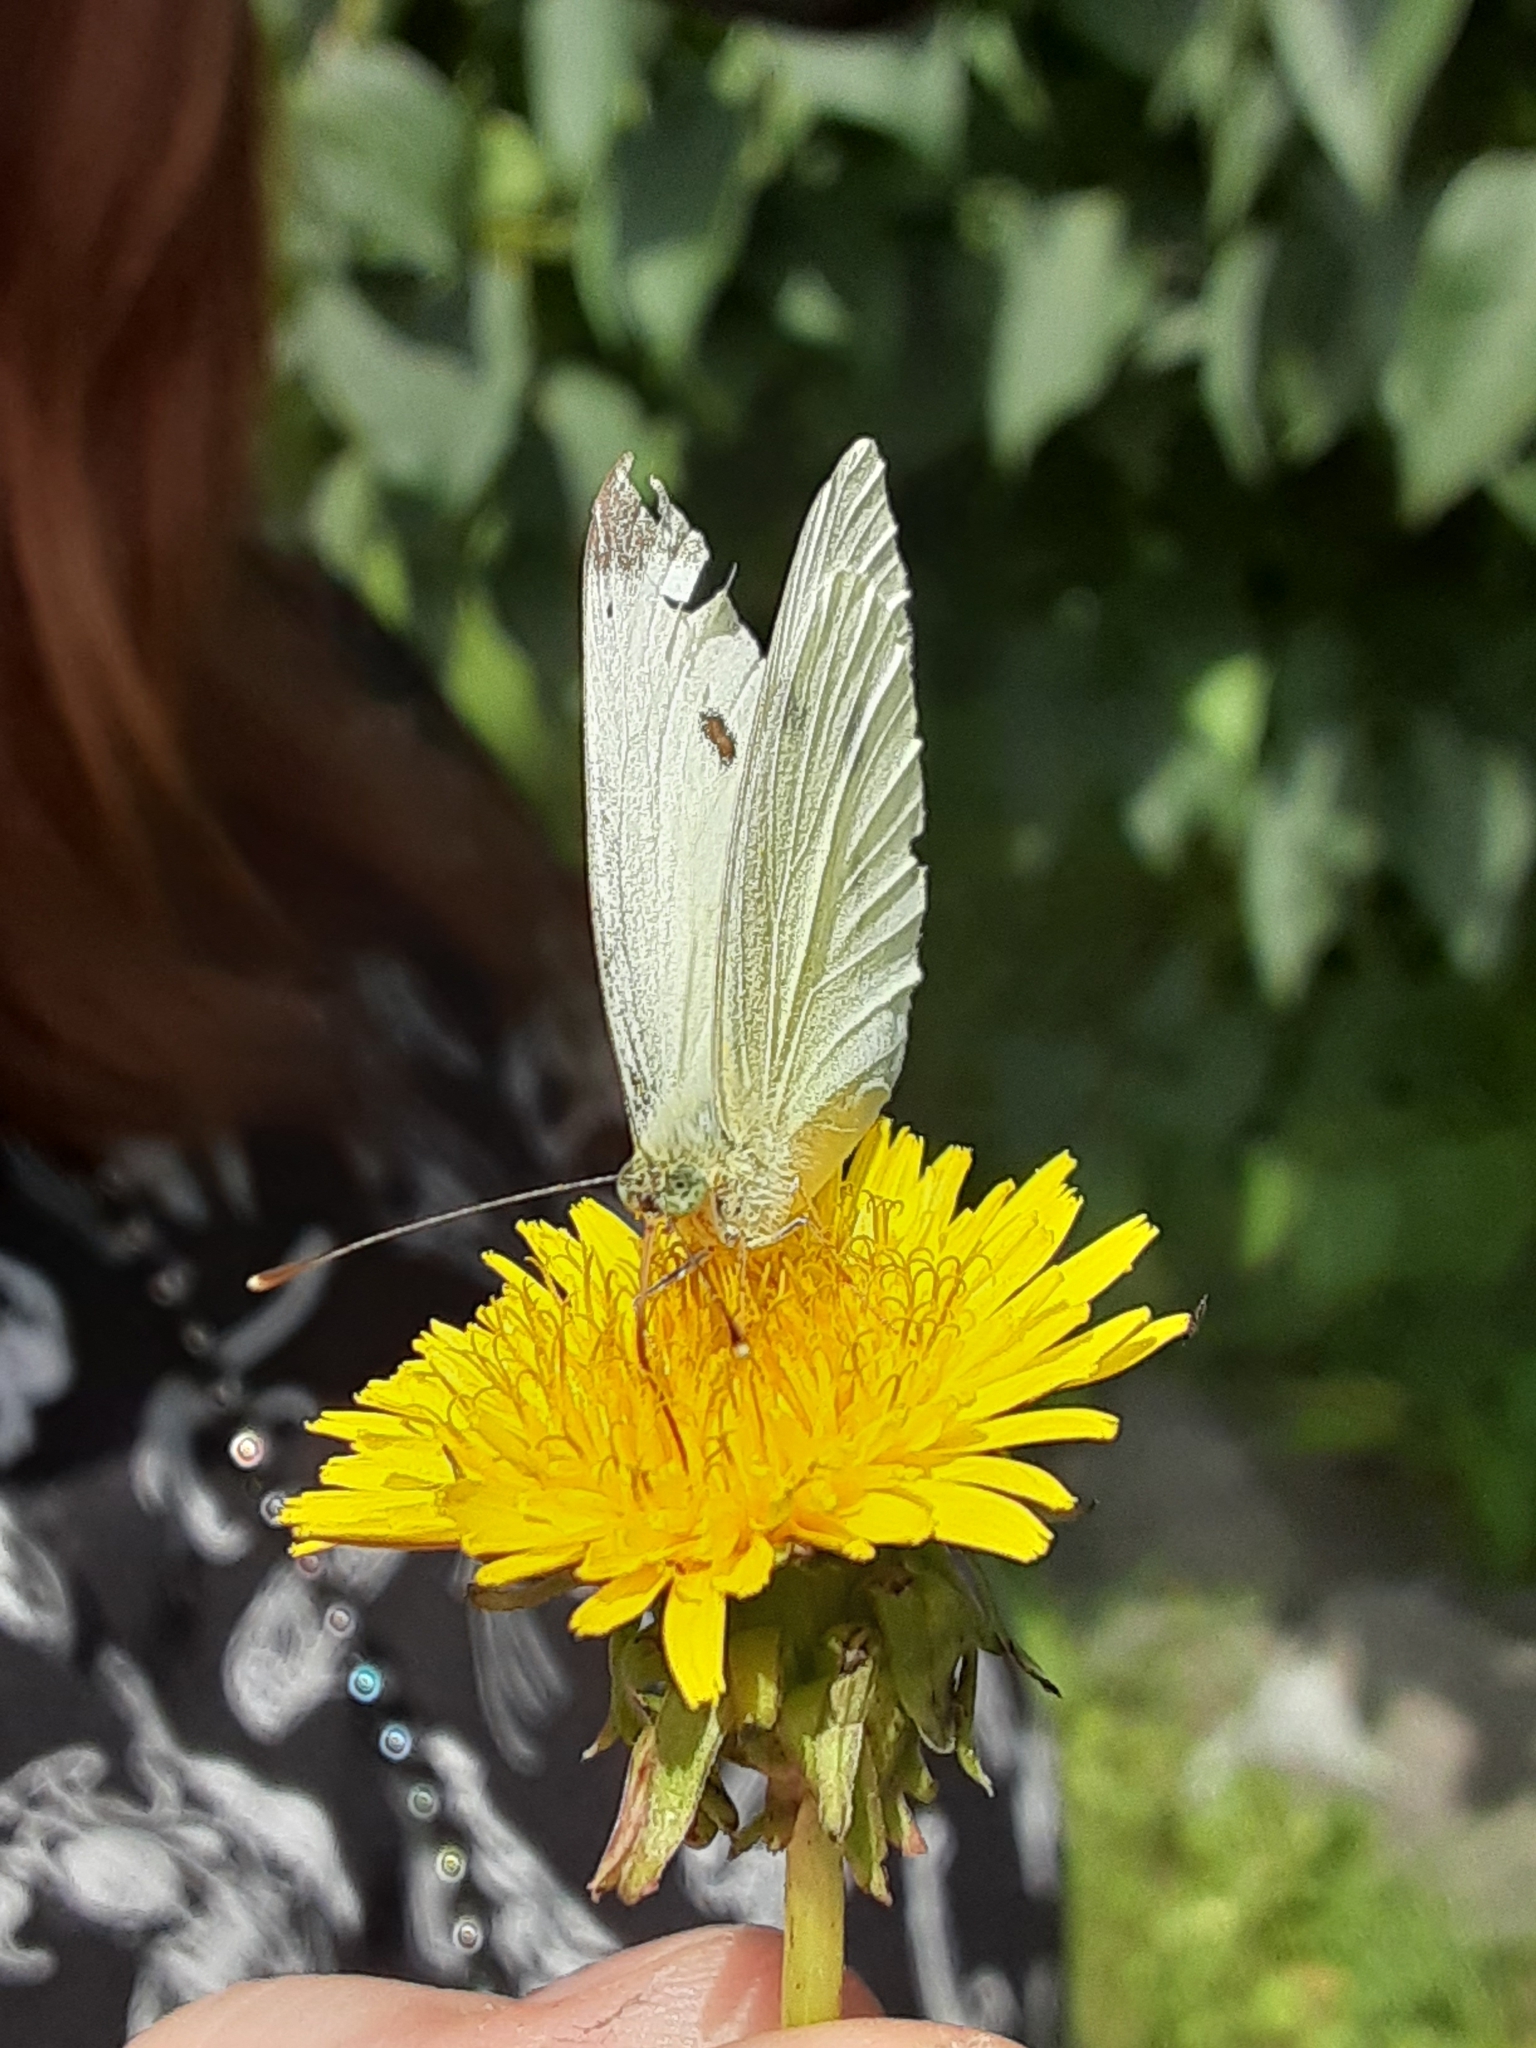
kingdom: Animalia
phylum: Arthropoda
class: Insecta
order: Lepidoptera
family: Pieridae
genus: Pieris
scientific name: Pieris rapae
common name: Small white
